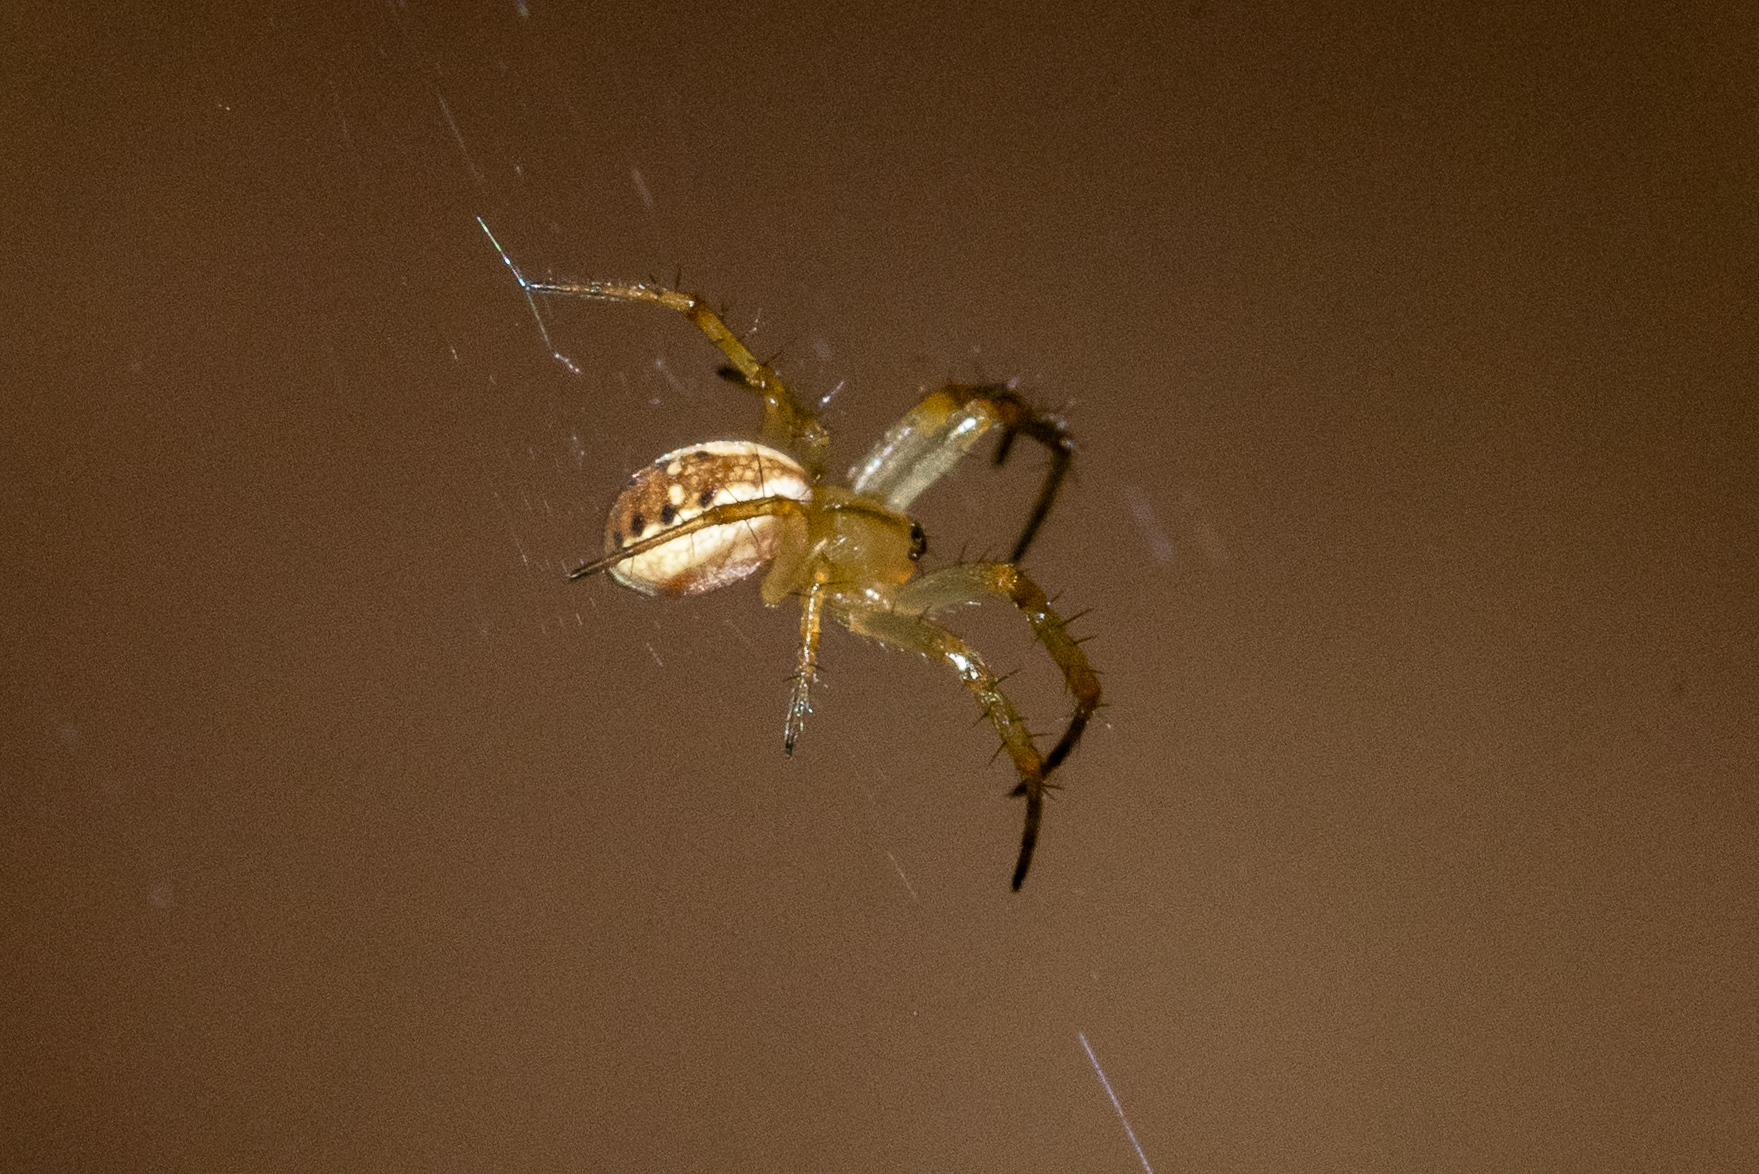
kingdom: Animalia
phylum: Arthropoda
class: Arachnida
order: Araneae
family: Araneidae
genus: Mangora
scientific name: Mangora placida
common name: Tuft-legged orbweaver
